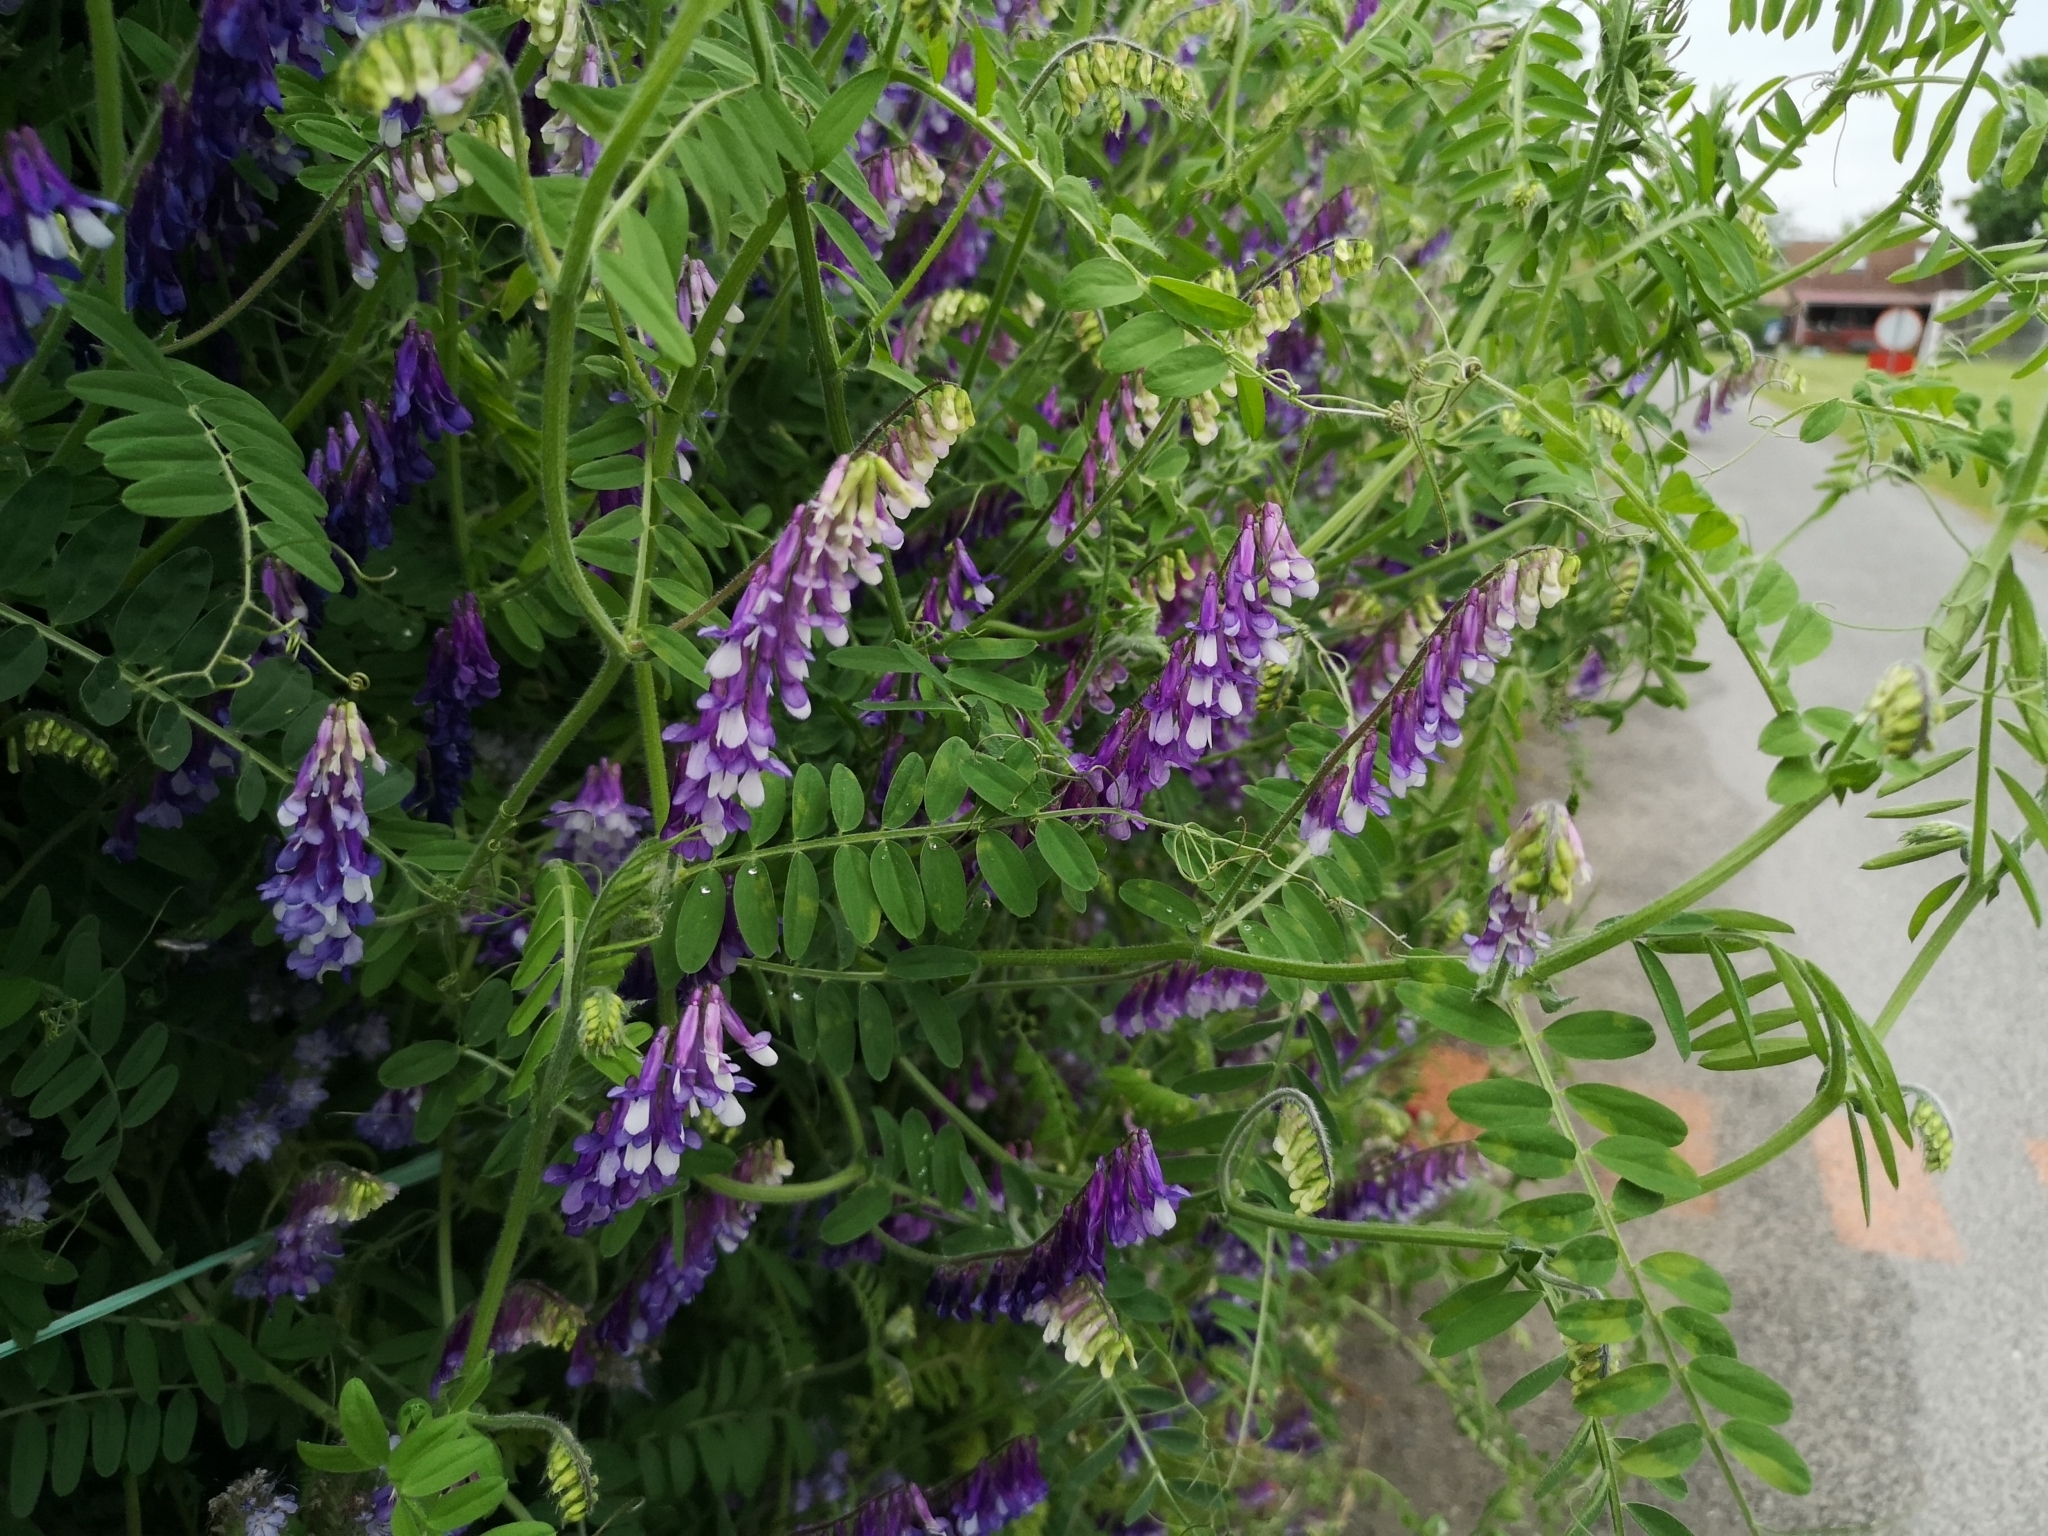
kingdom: Plantae
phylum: Tracheophyta
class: Magnoliopsida
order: Fabales
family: Fabaceae
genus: Vicia
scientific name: Vicia villosa
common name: Fodder vetch
